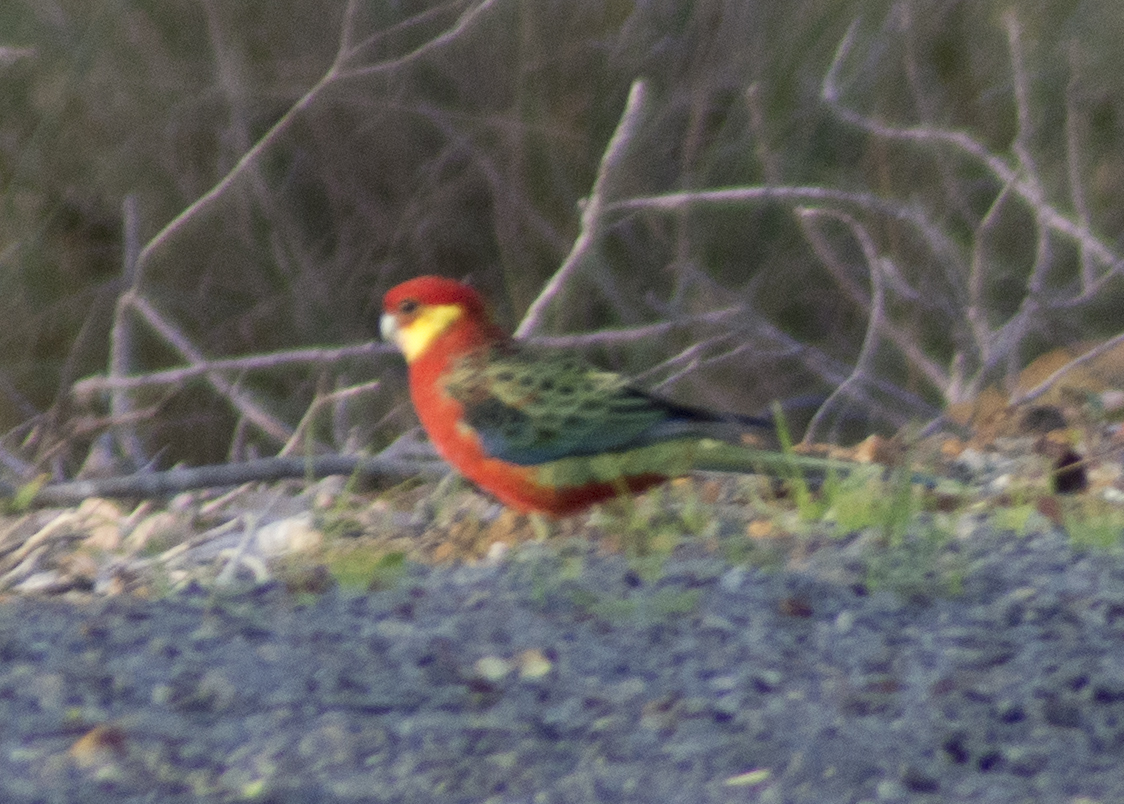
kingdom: Animalia
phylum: Chordata
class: Aves
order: Psittaciformes
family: Psittacidae
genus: Platycercus
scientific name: Platycercus icterotis
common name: Western rosella
